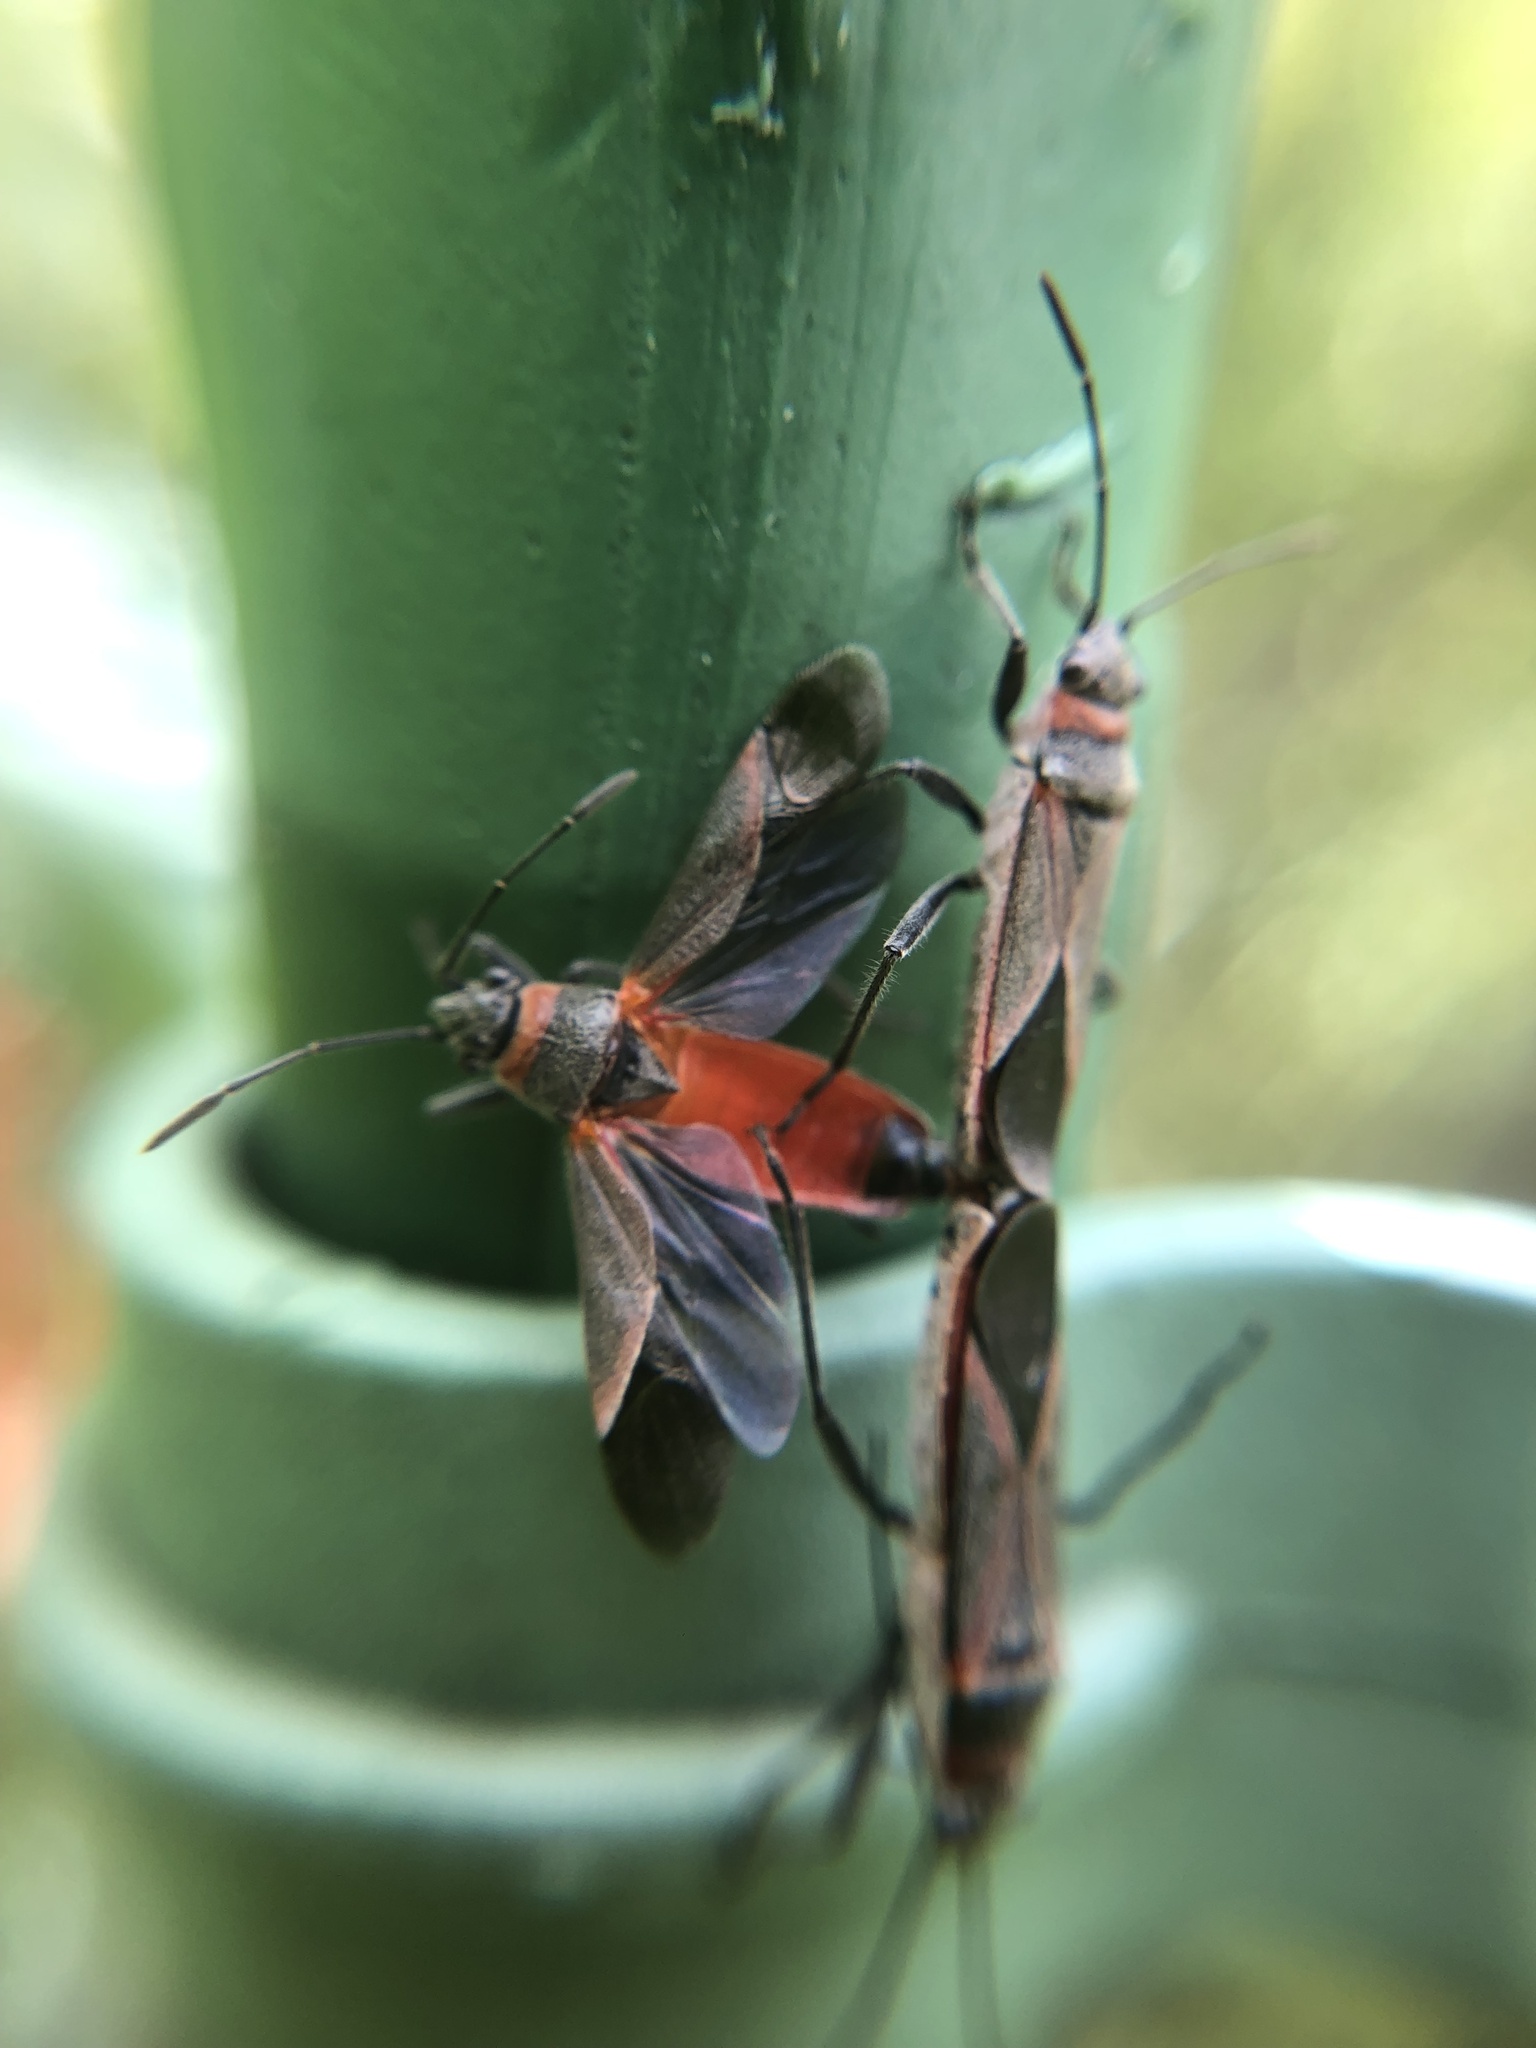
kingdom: Animalia
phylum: Arthropoda
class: Insecta
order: Hemiptera
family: Lygaeidae
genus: Arocatus
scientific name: Arocatus rusticus
